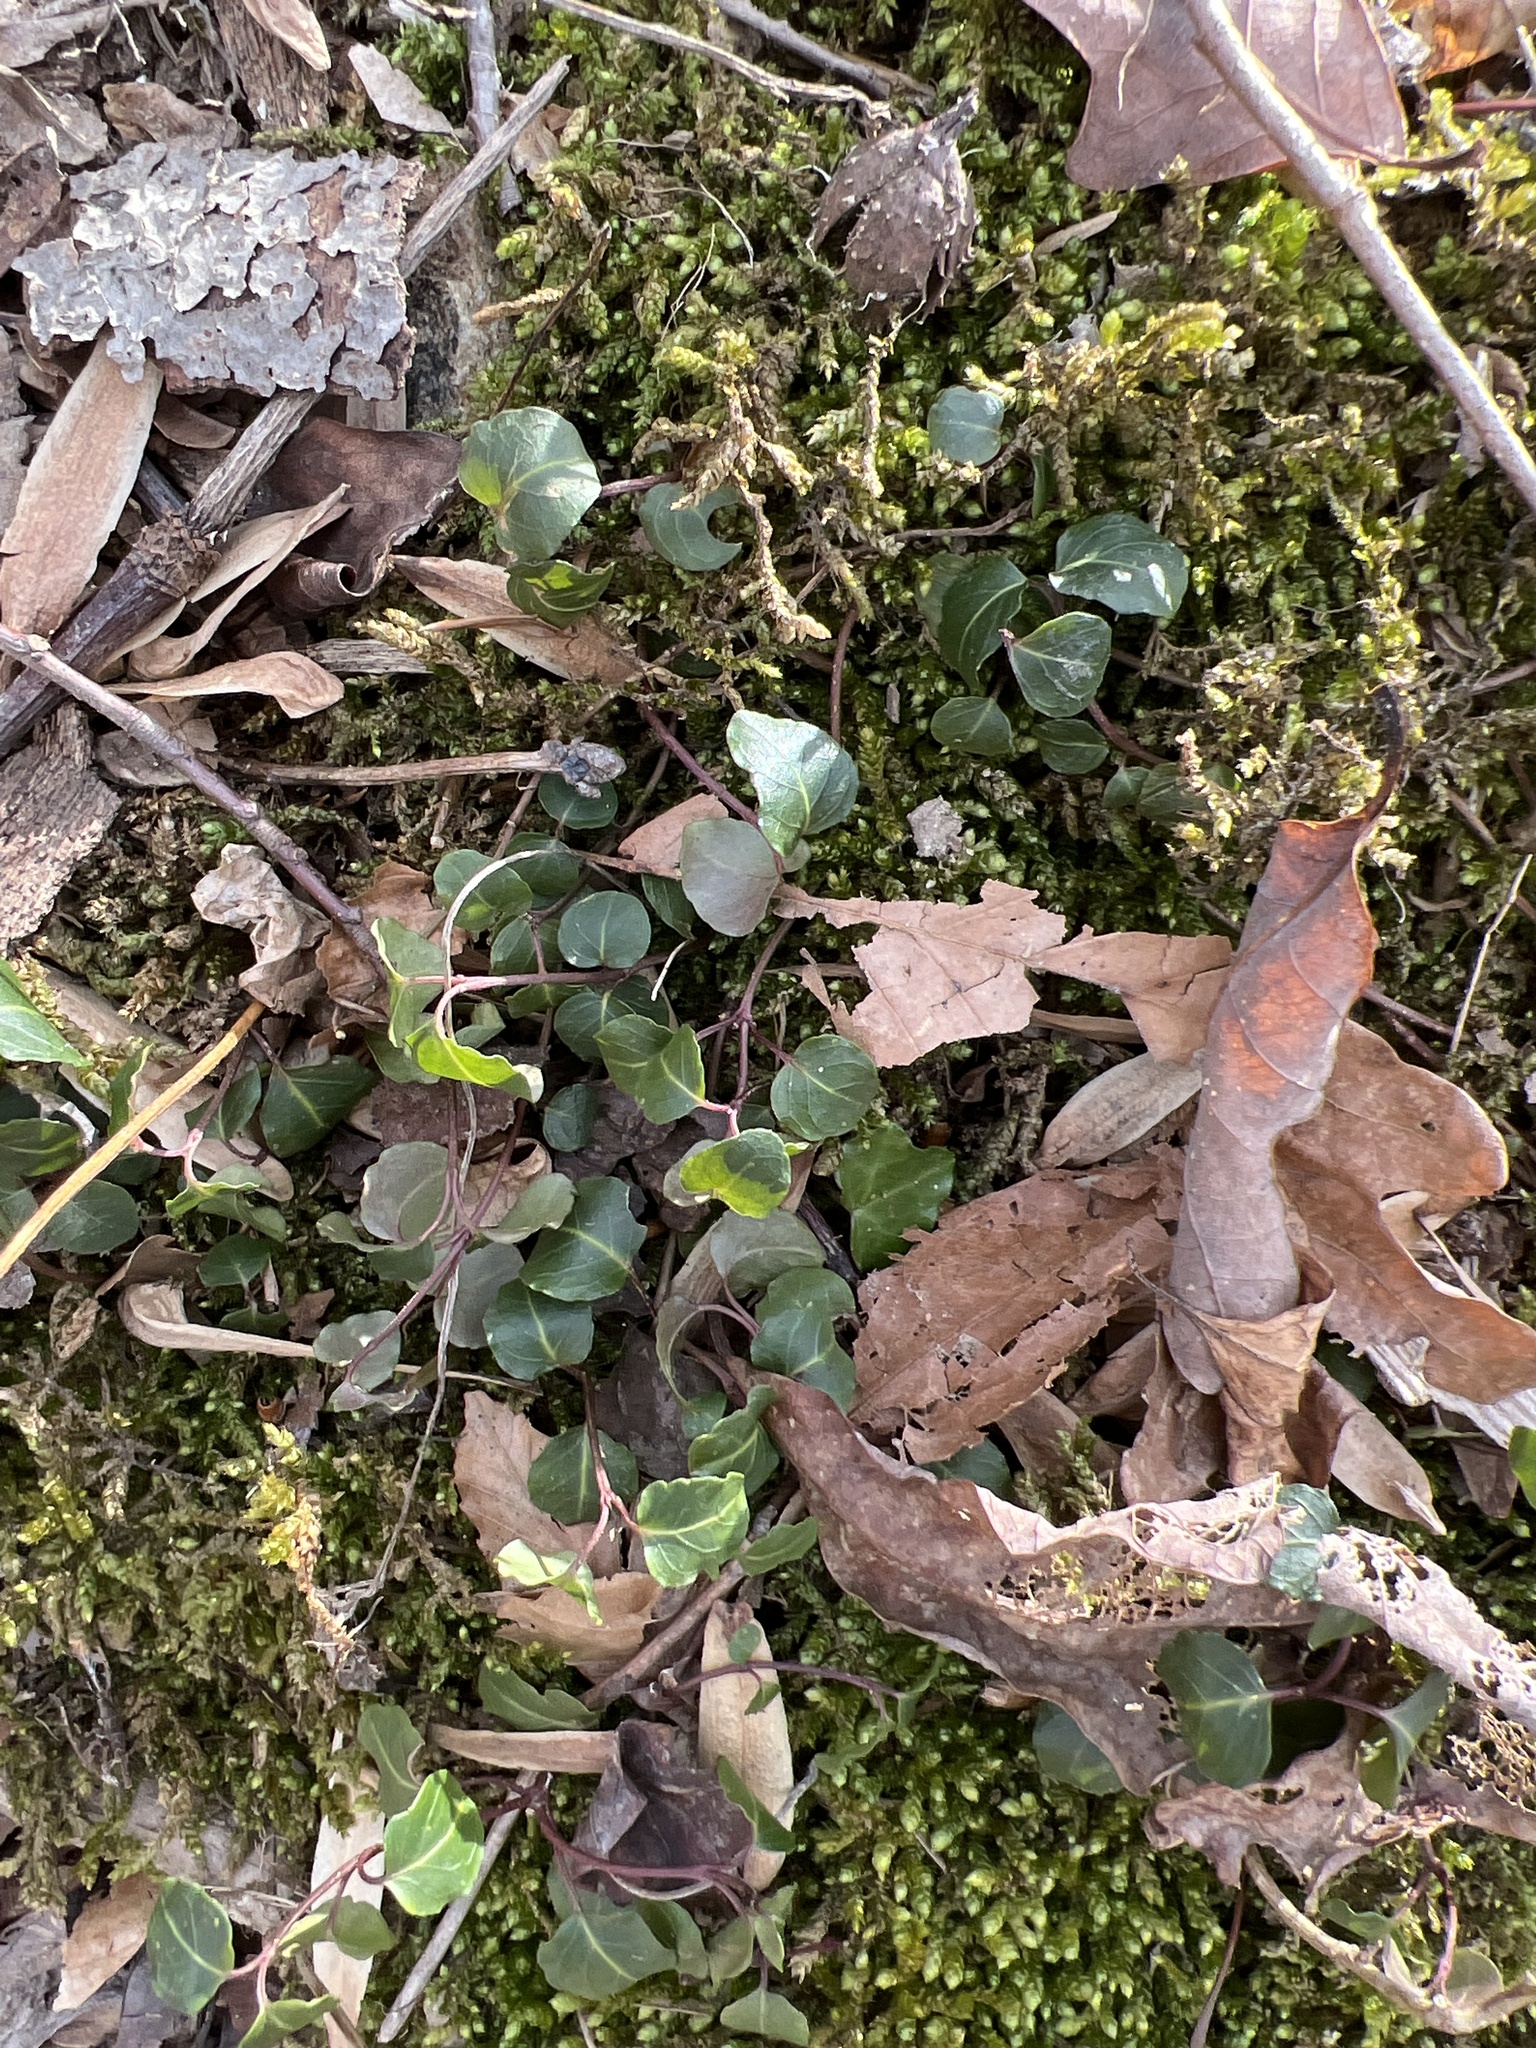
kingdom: Plantae
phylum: Tracheophyta
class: Magnoliopsida
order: Gentianales
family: Rubiaceae
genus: Mitchella
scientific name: Mitchella repens
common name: Partridge-berry
